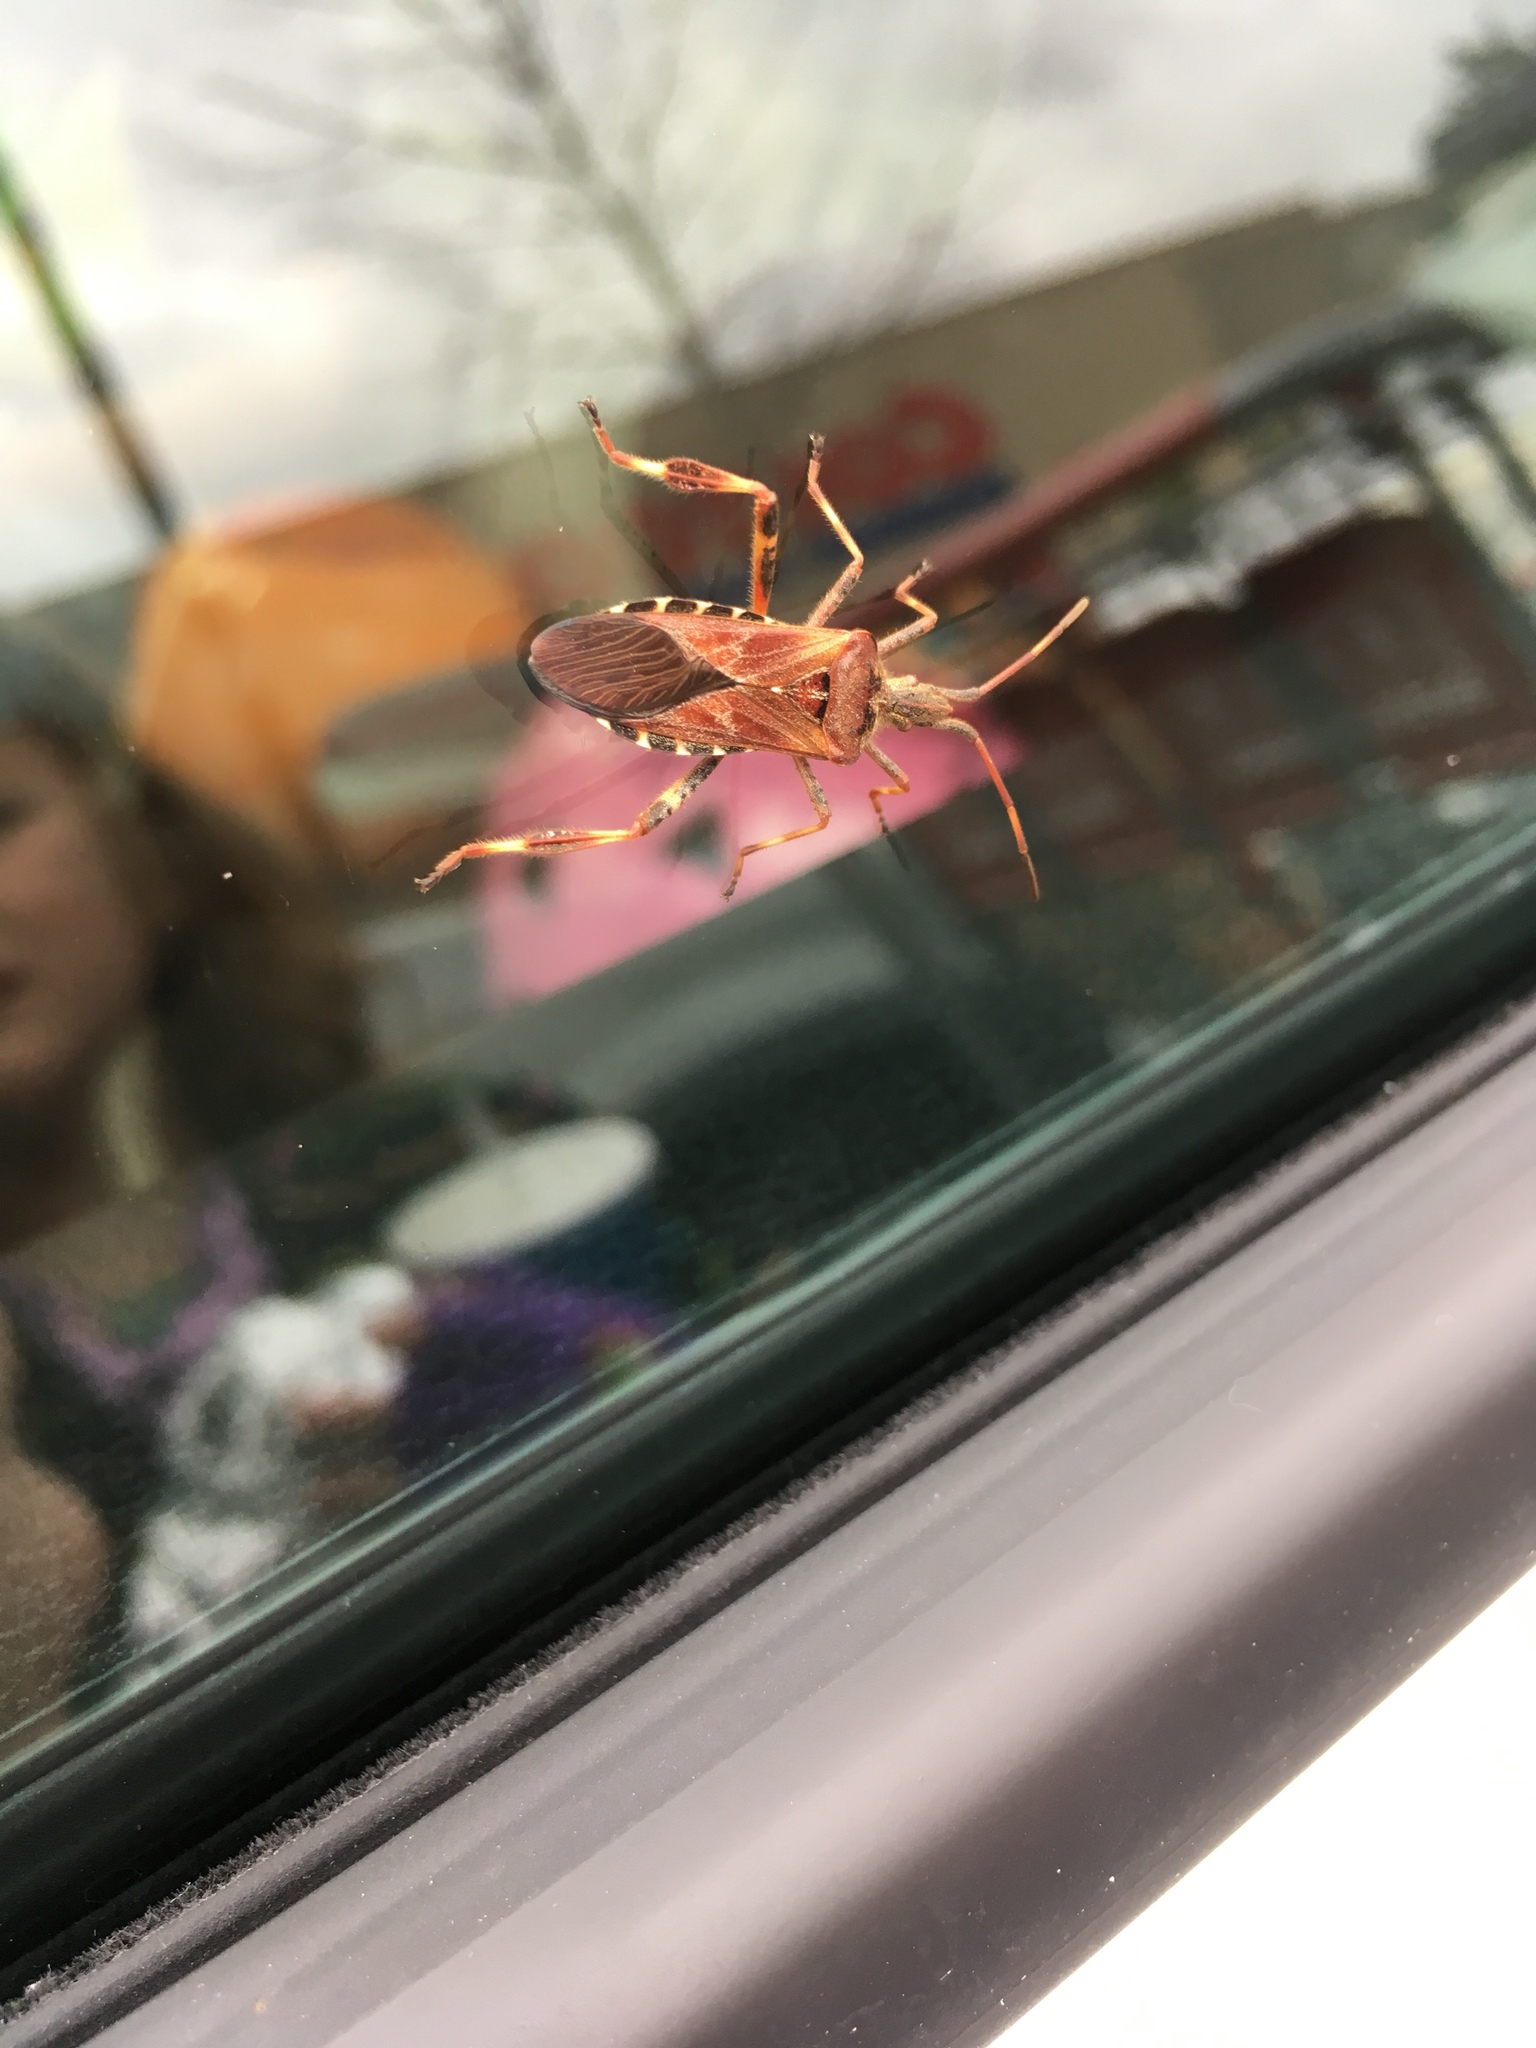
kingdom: Animalia
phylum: Arthropoda
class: Insecta
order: Hemiptera
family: Coreidae
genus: Leptoglossus
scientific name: Leptoglossus occidentalis
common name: Western conifer-seed bug
